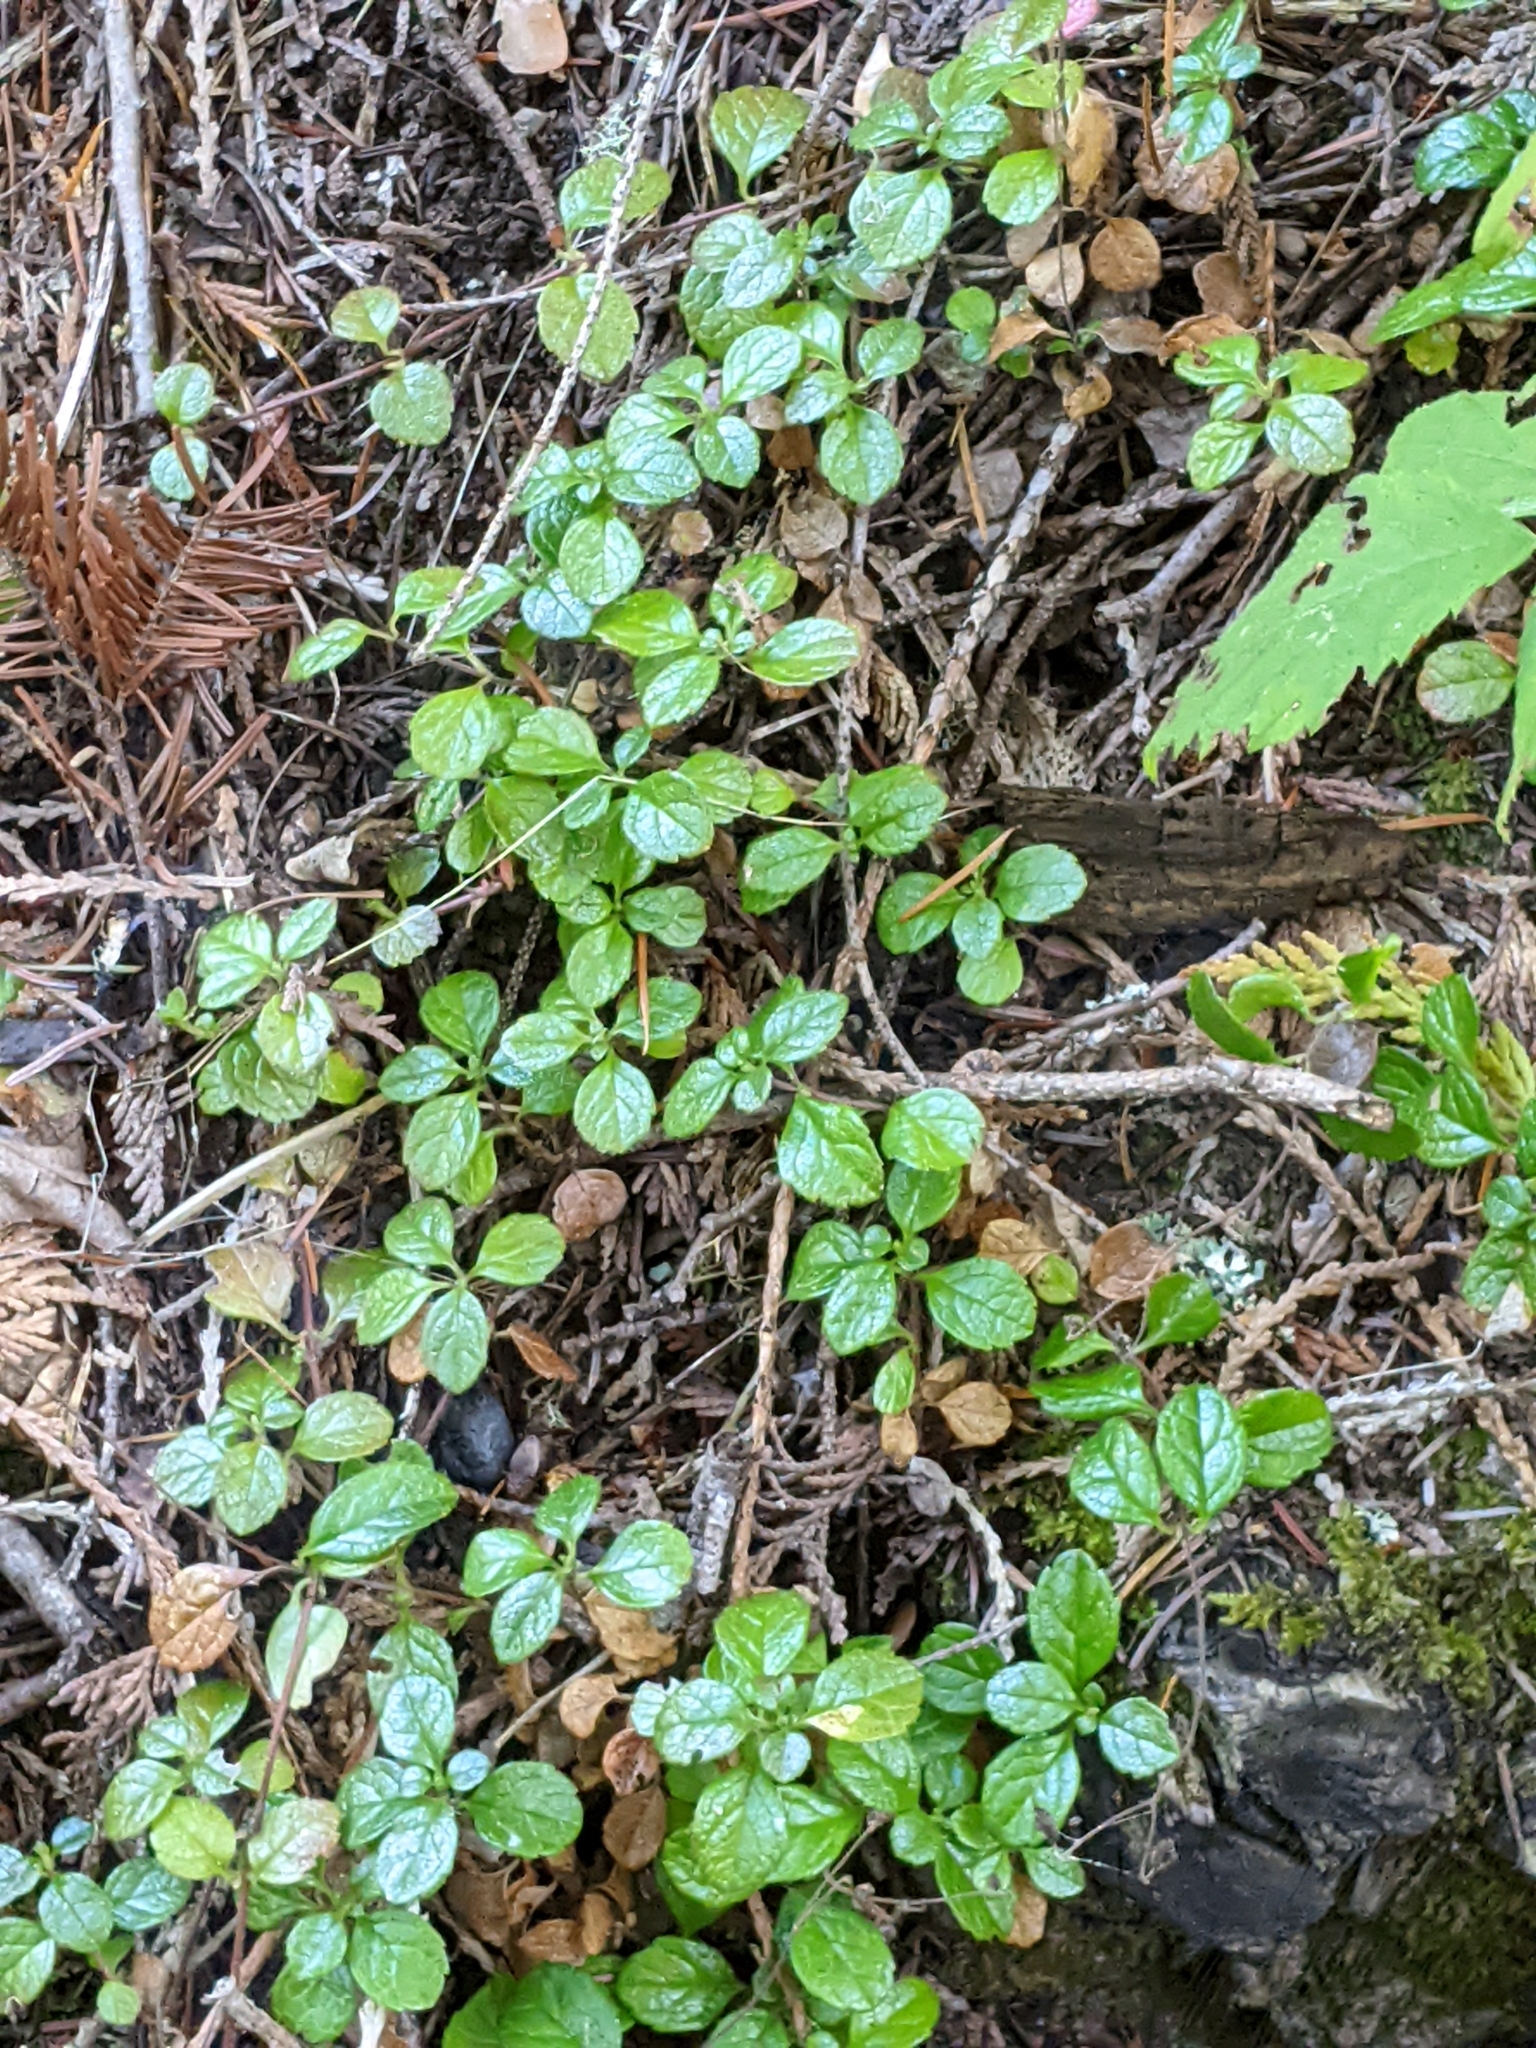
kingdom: Plantae
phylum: Tracheophyta
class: Magnoliopsida
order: Dipsacales
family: Caprifoliaceae
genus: Linnaea
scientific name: Linnaea borealis
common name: Twinflower
